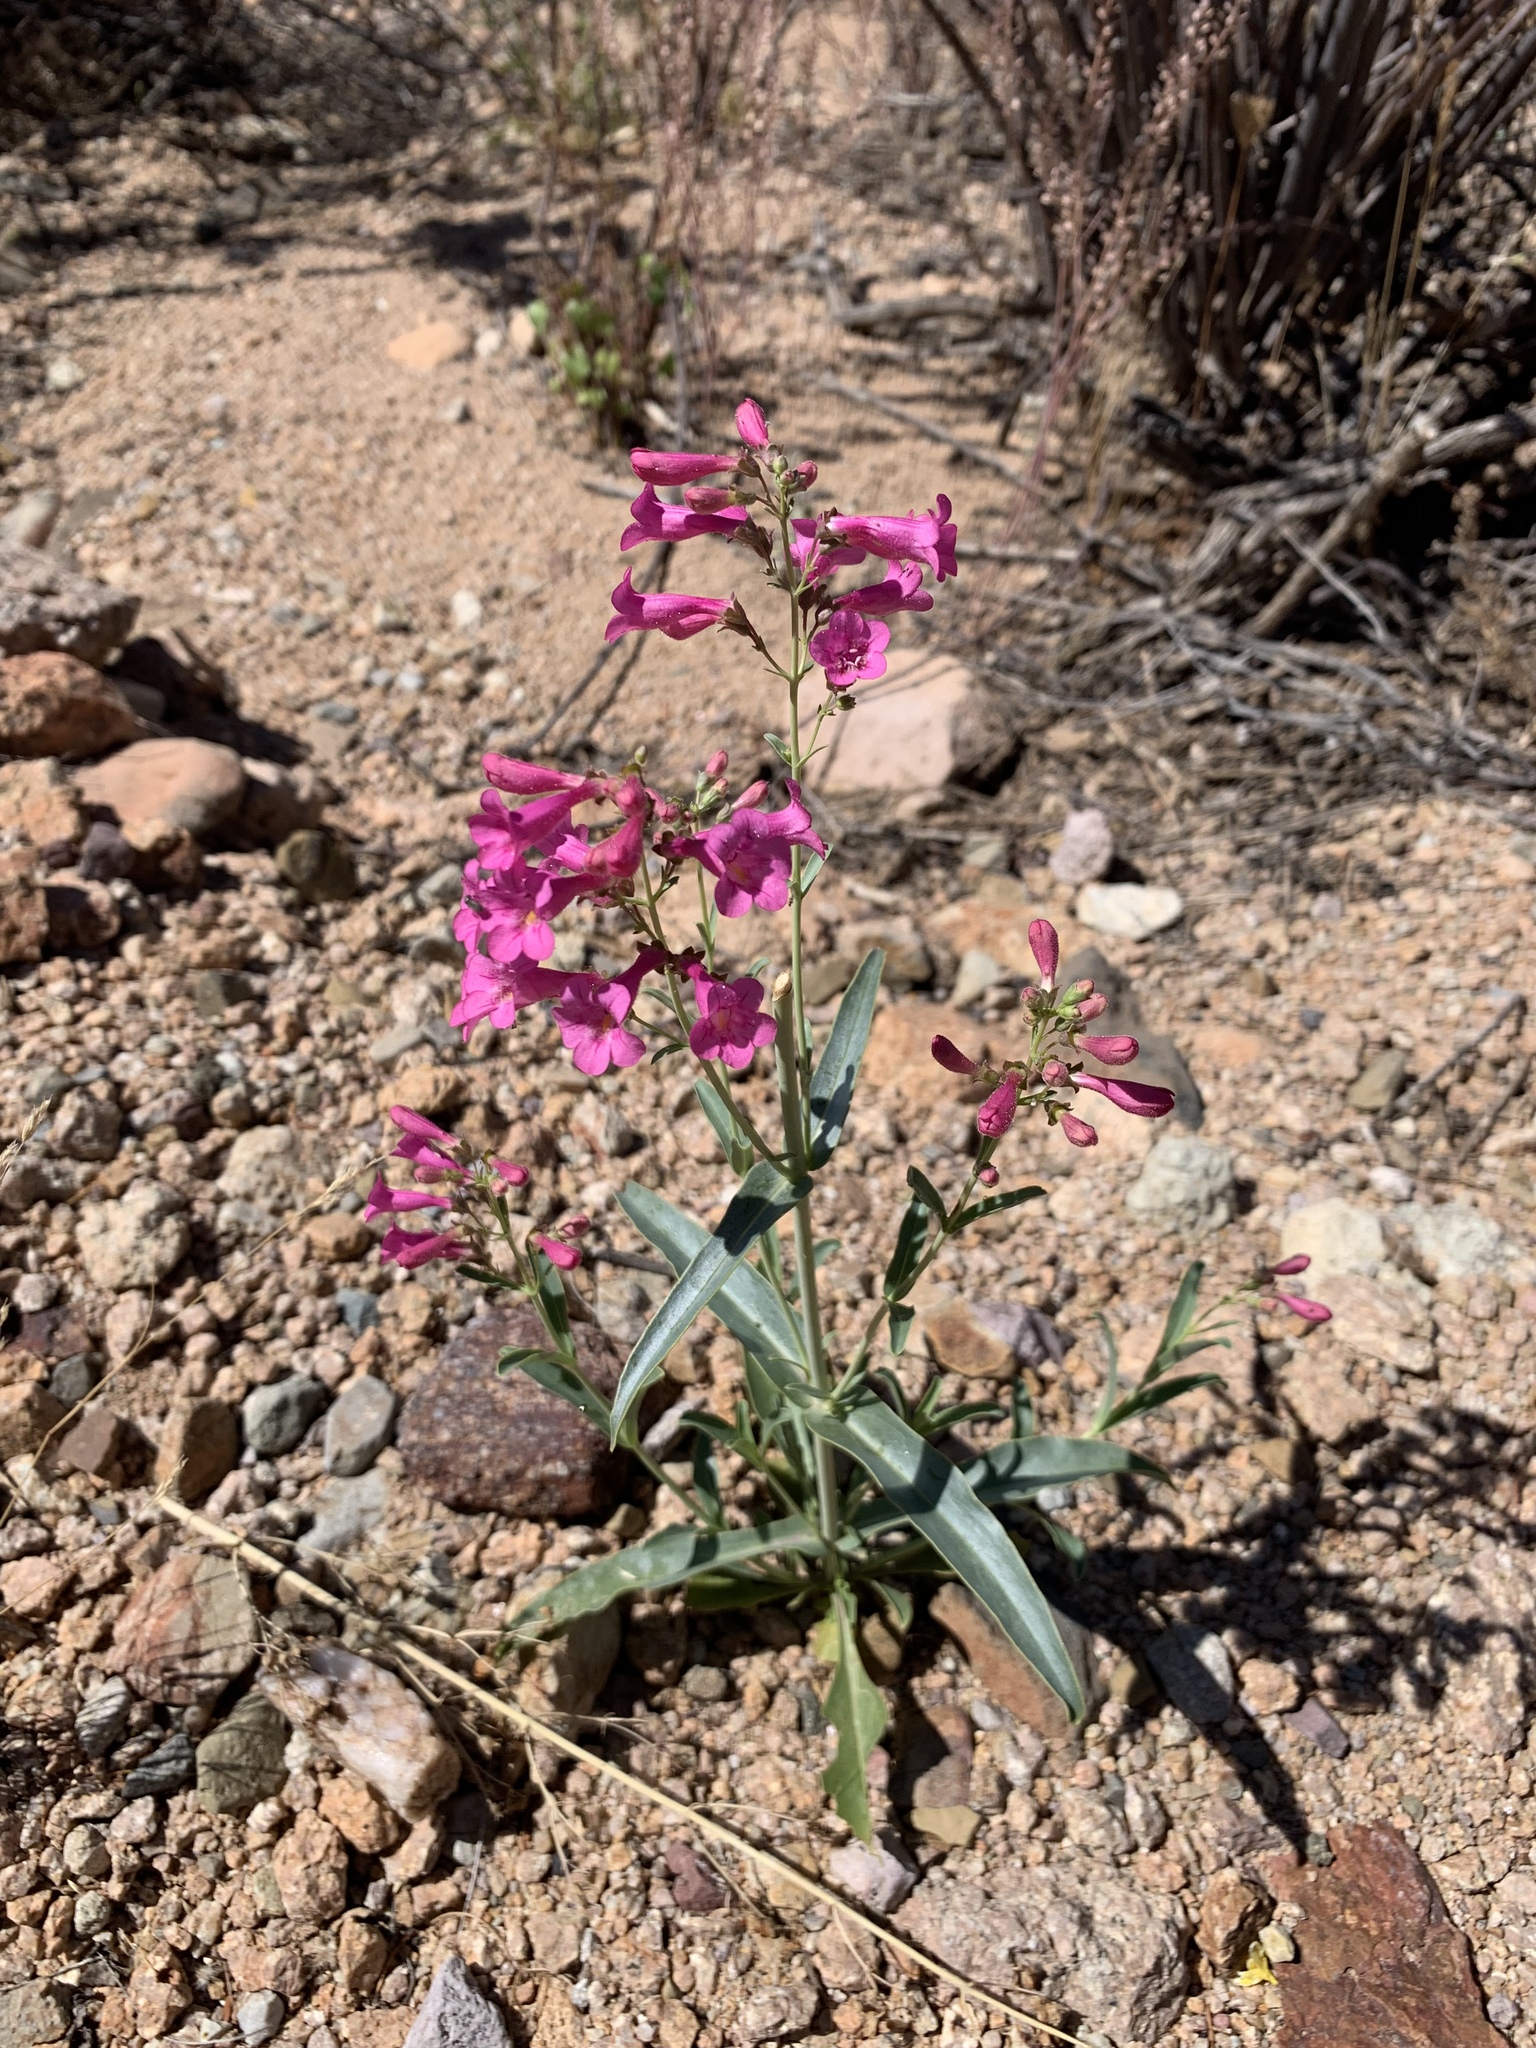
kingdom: Plantae
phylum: Tracheophyta
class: Magnoliopsida
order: Lamiales
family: Plantaginaceae
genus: Penstemon
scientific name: Penstemon parryi
